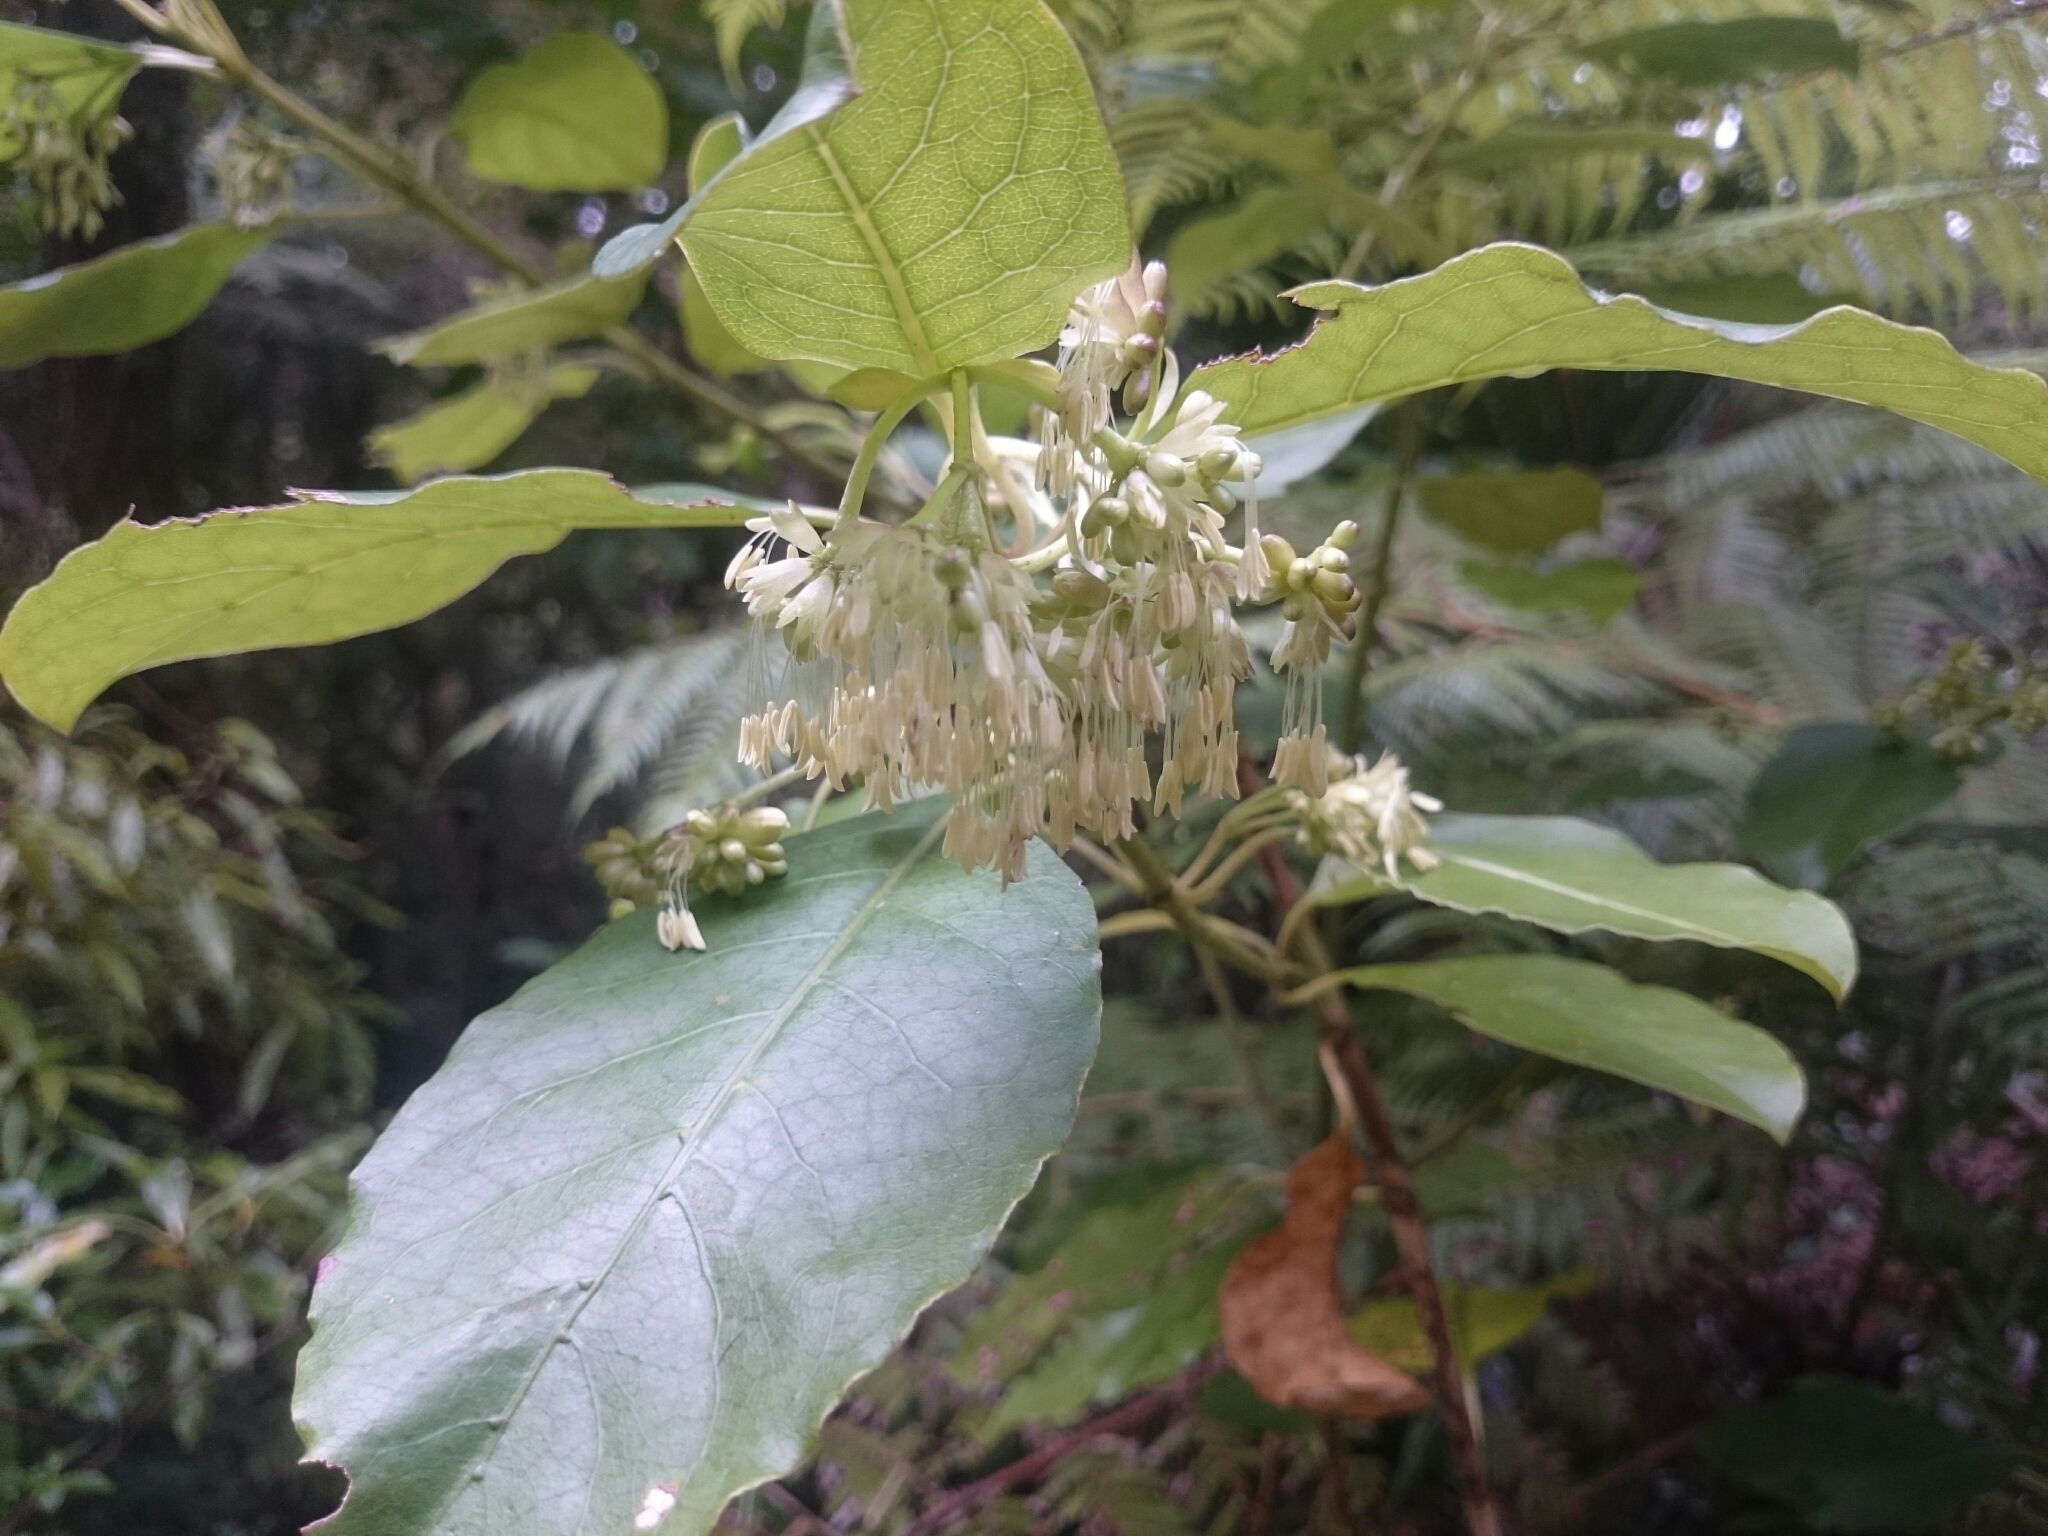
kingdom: Plantae
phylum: Tracheophyta
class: Magnoliopsida
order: Gentianales
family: Rubiaceae
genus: Coprosma
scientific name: Coprosma autumnalis
